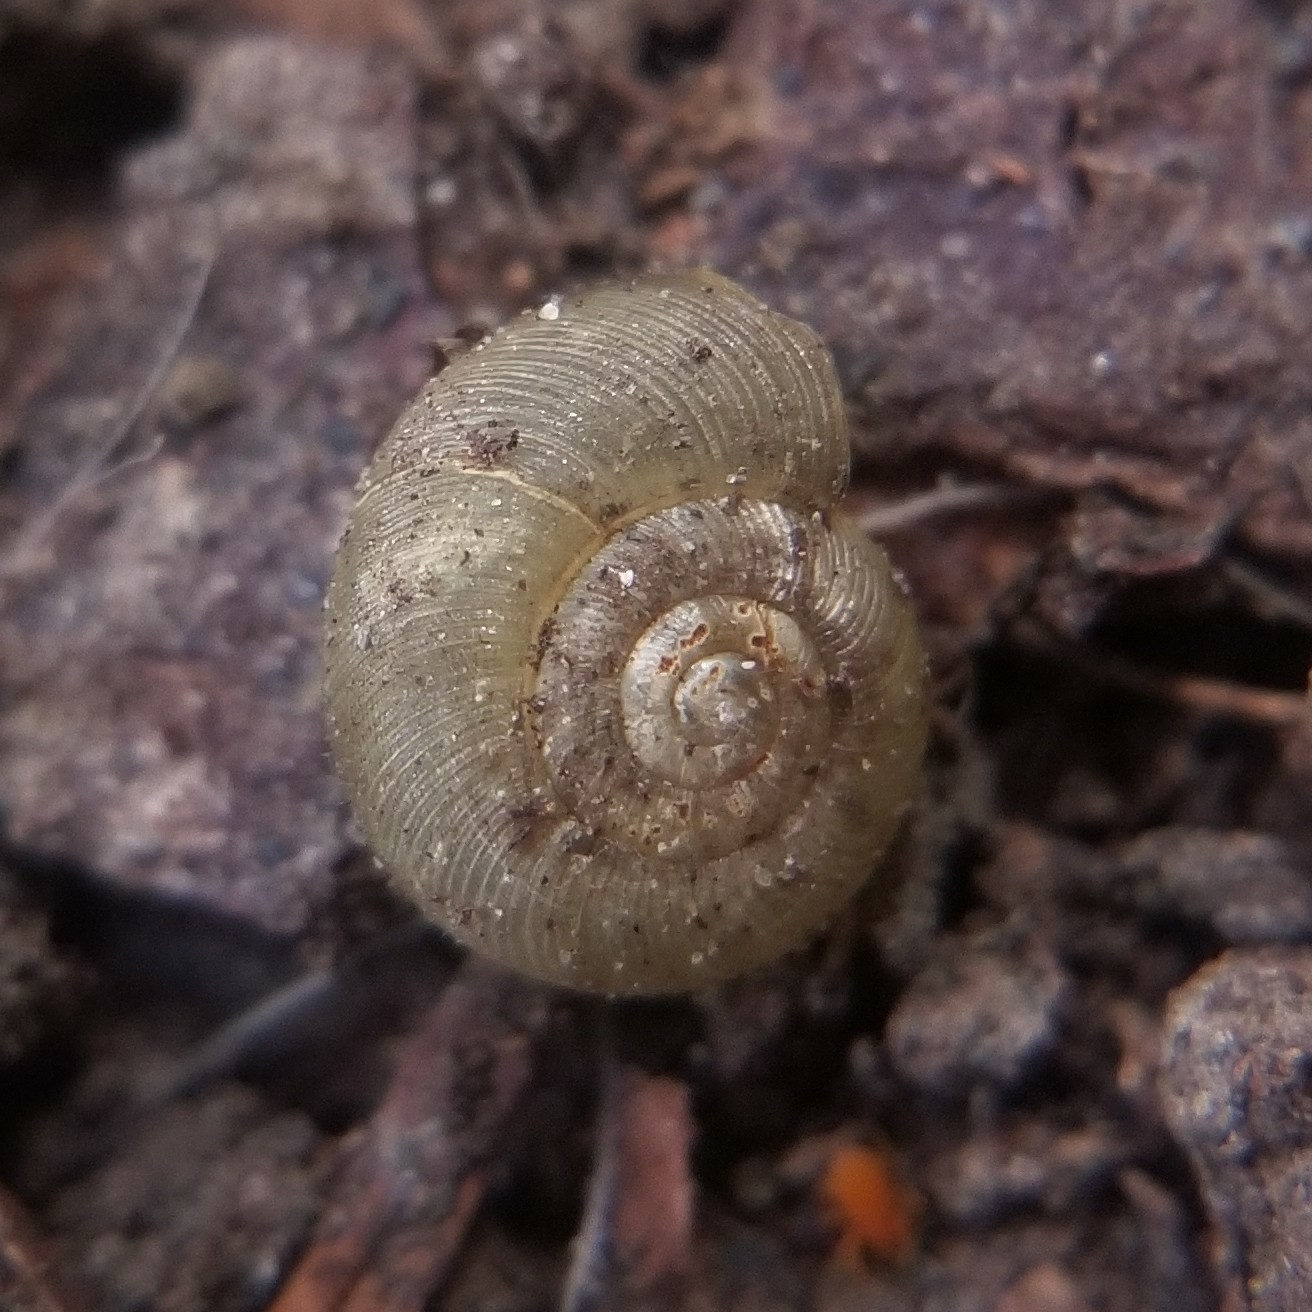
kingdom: Animalia
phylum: Mollusca
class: Gastropoda
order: Stylommatophora
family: Haplotrematidae
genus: Ancotrema
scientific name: Ancotrema sportella
